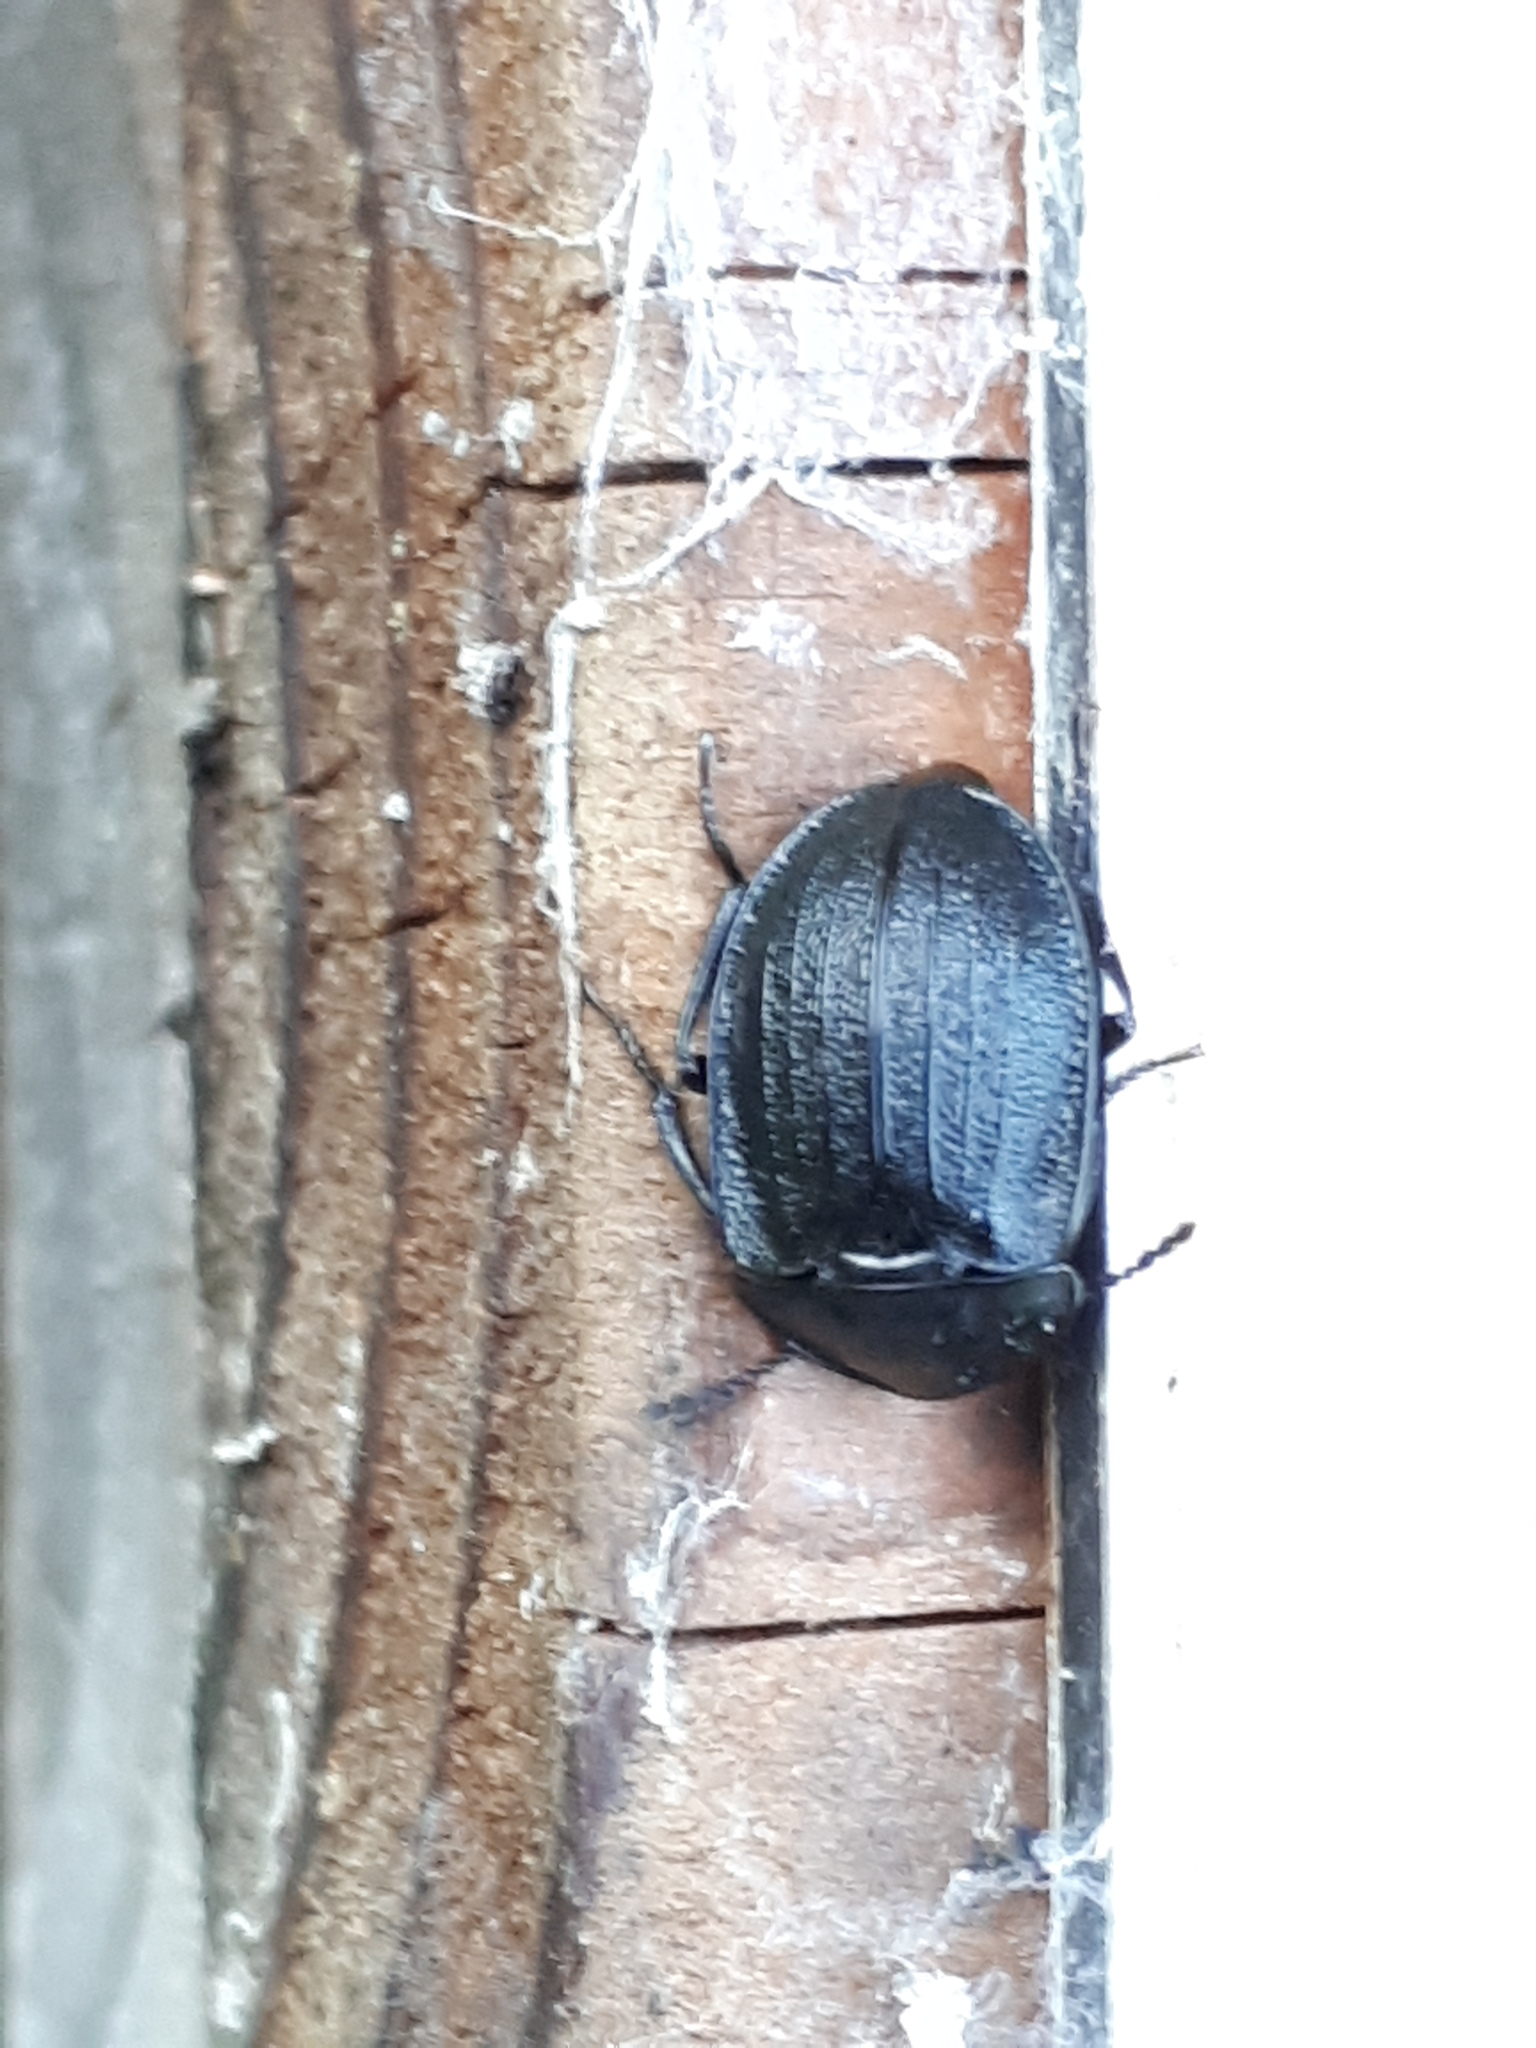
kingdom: Animalia
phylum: Arthropoda
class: Insecta
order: Coleoptera
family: Staphylinidae
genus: Silpha
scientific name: Silpha atrata
